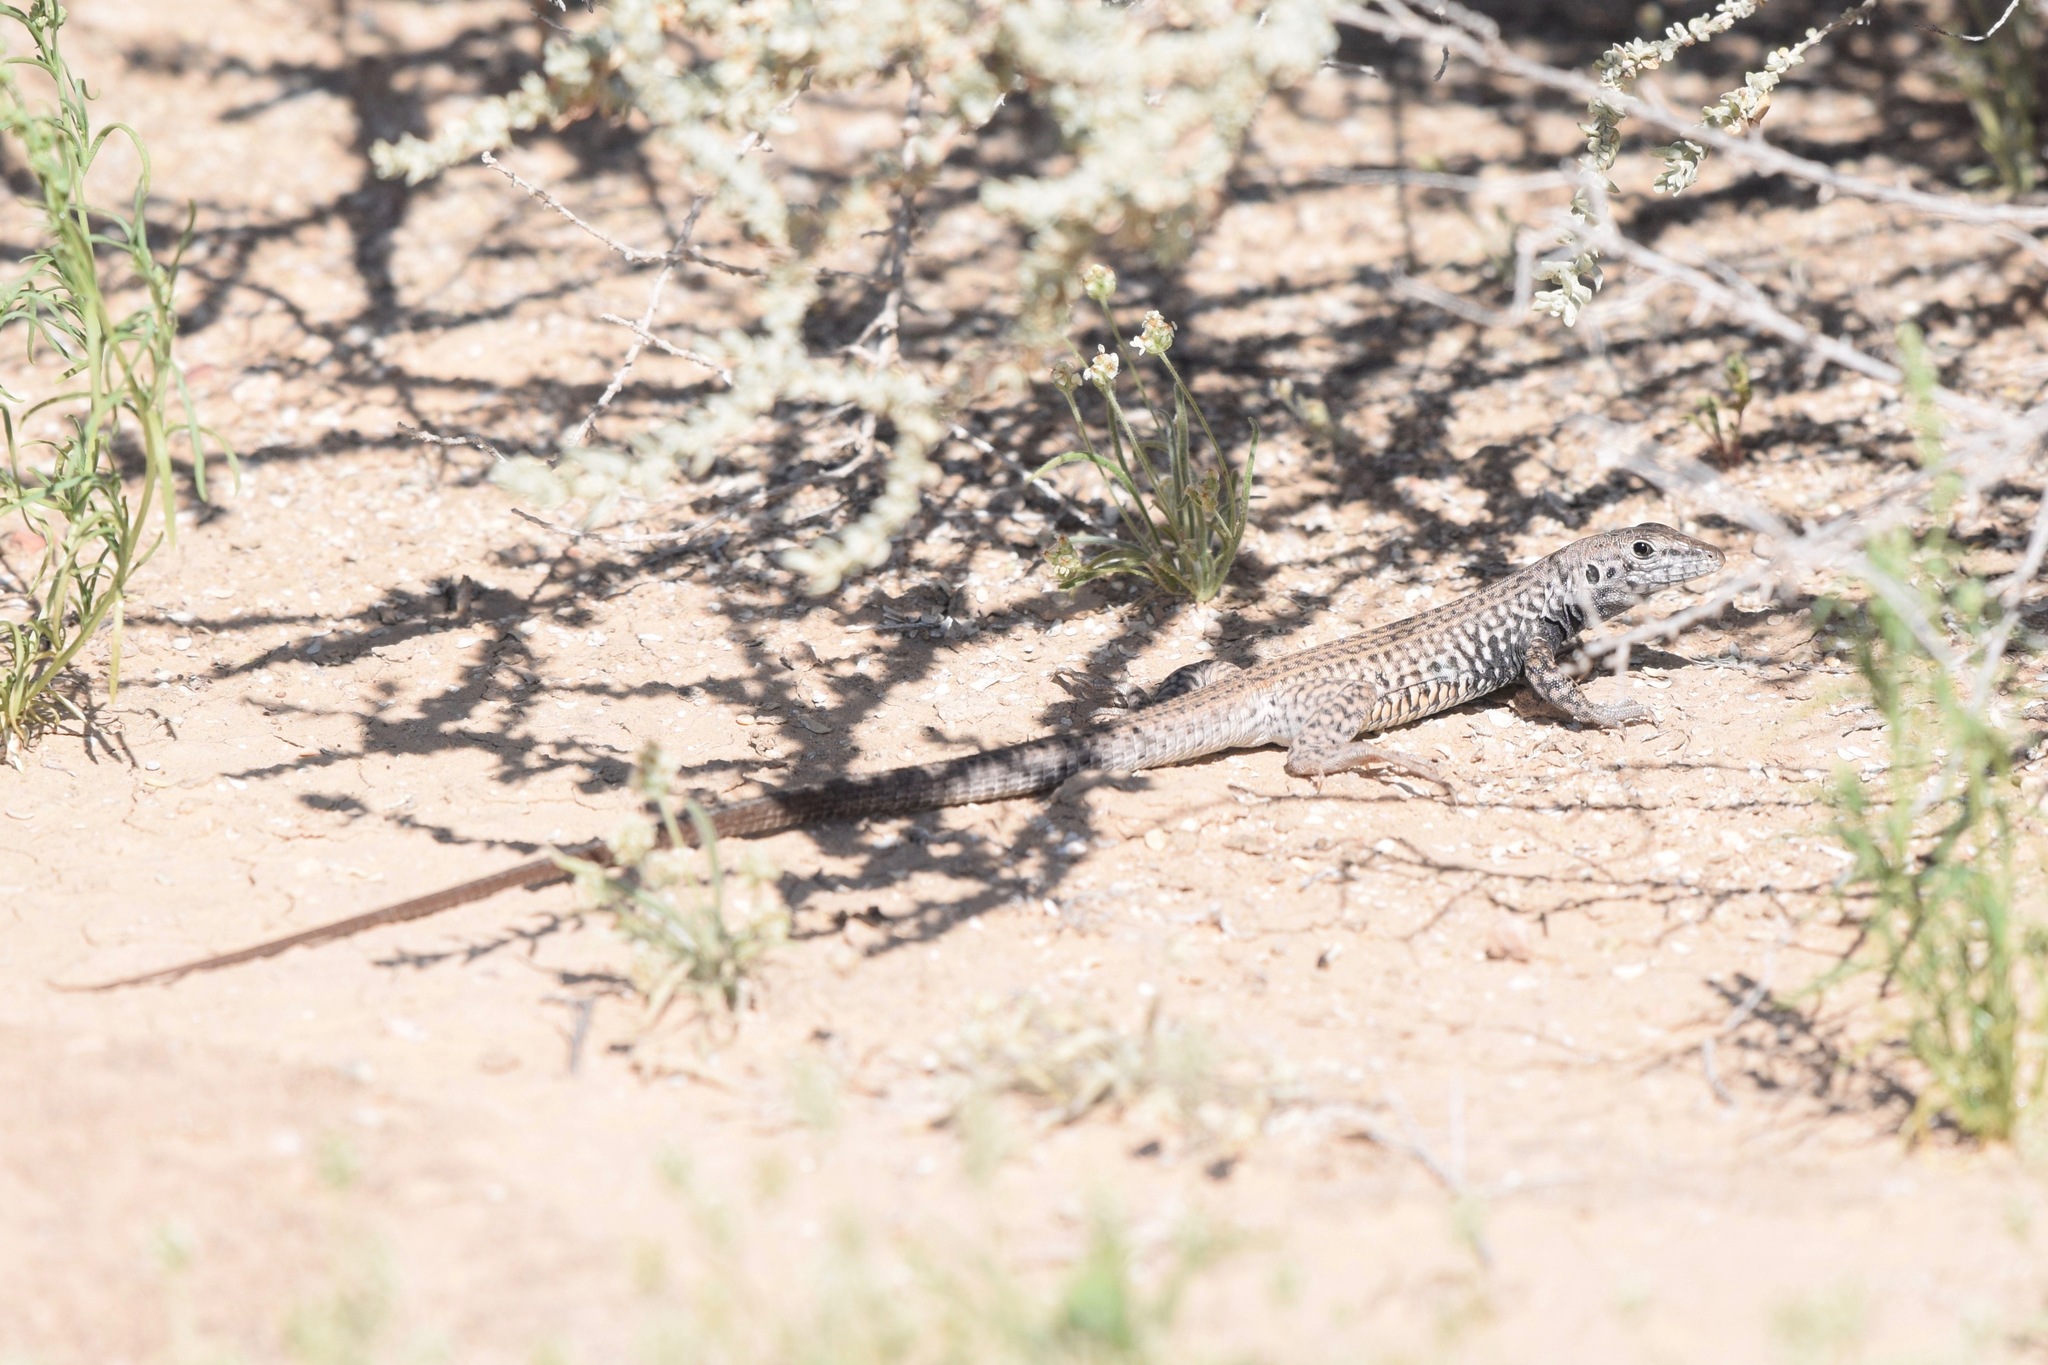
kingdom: Animalia
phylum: Chordata
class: Squamata
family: Teiidae
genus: Aspidoscelis
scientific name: Aspidoscelis tigris
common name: Tiger whiptail
